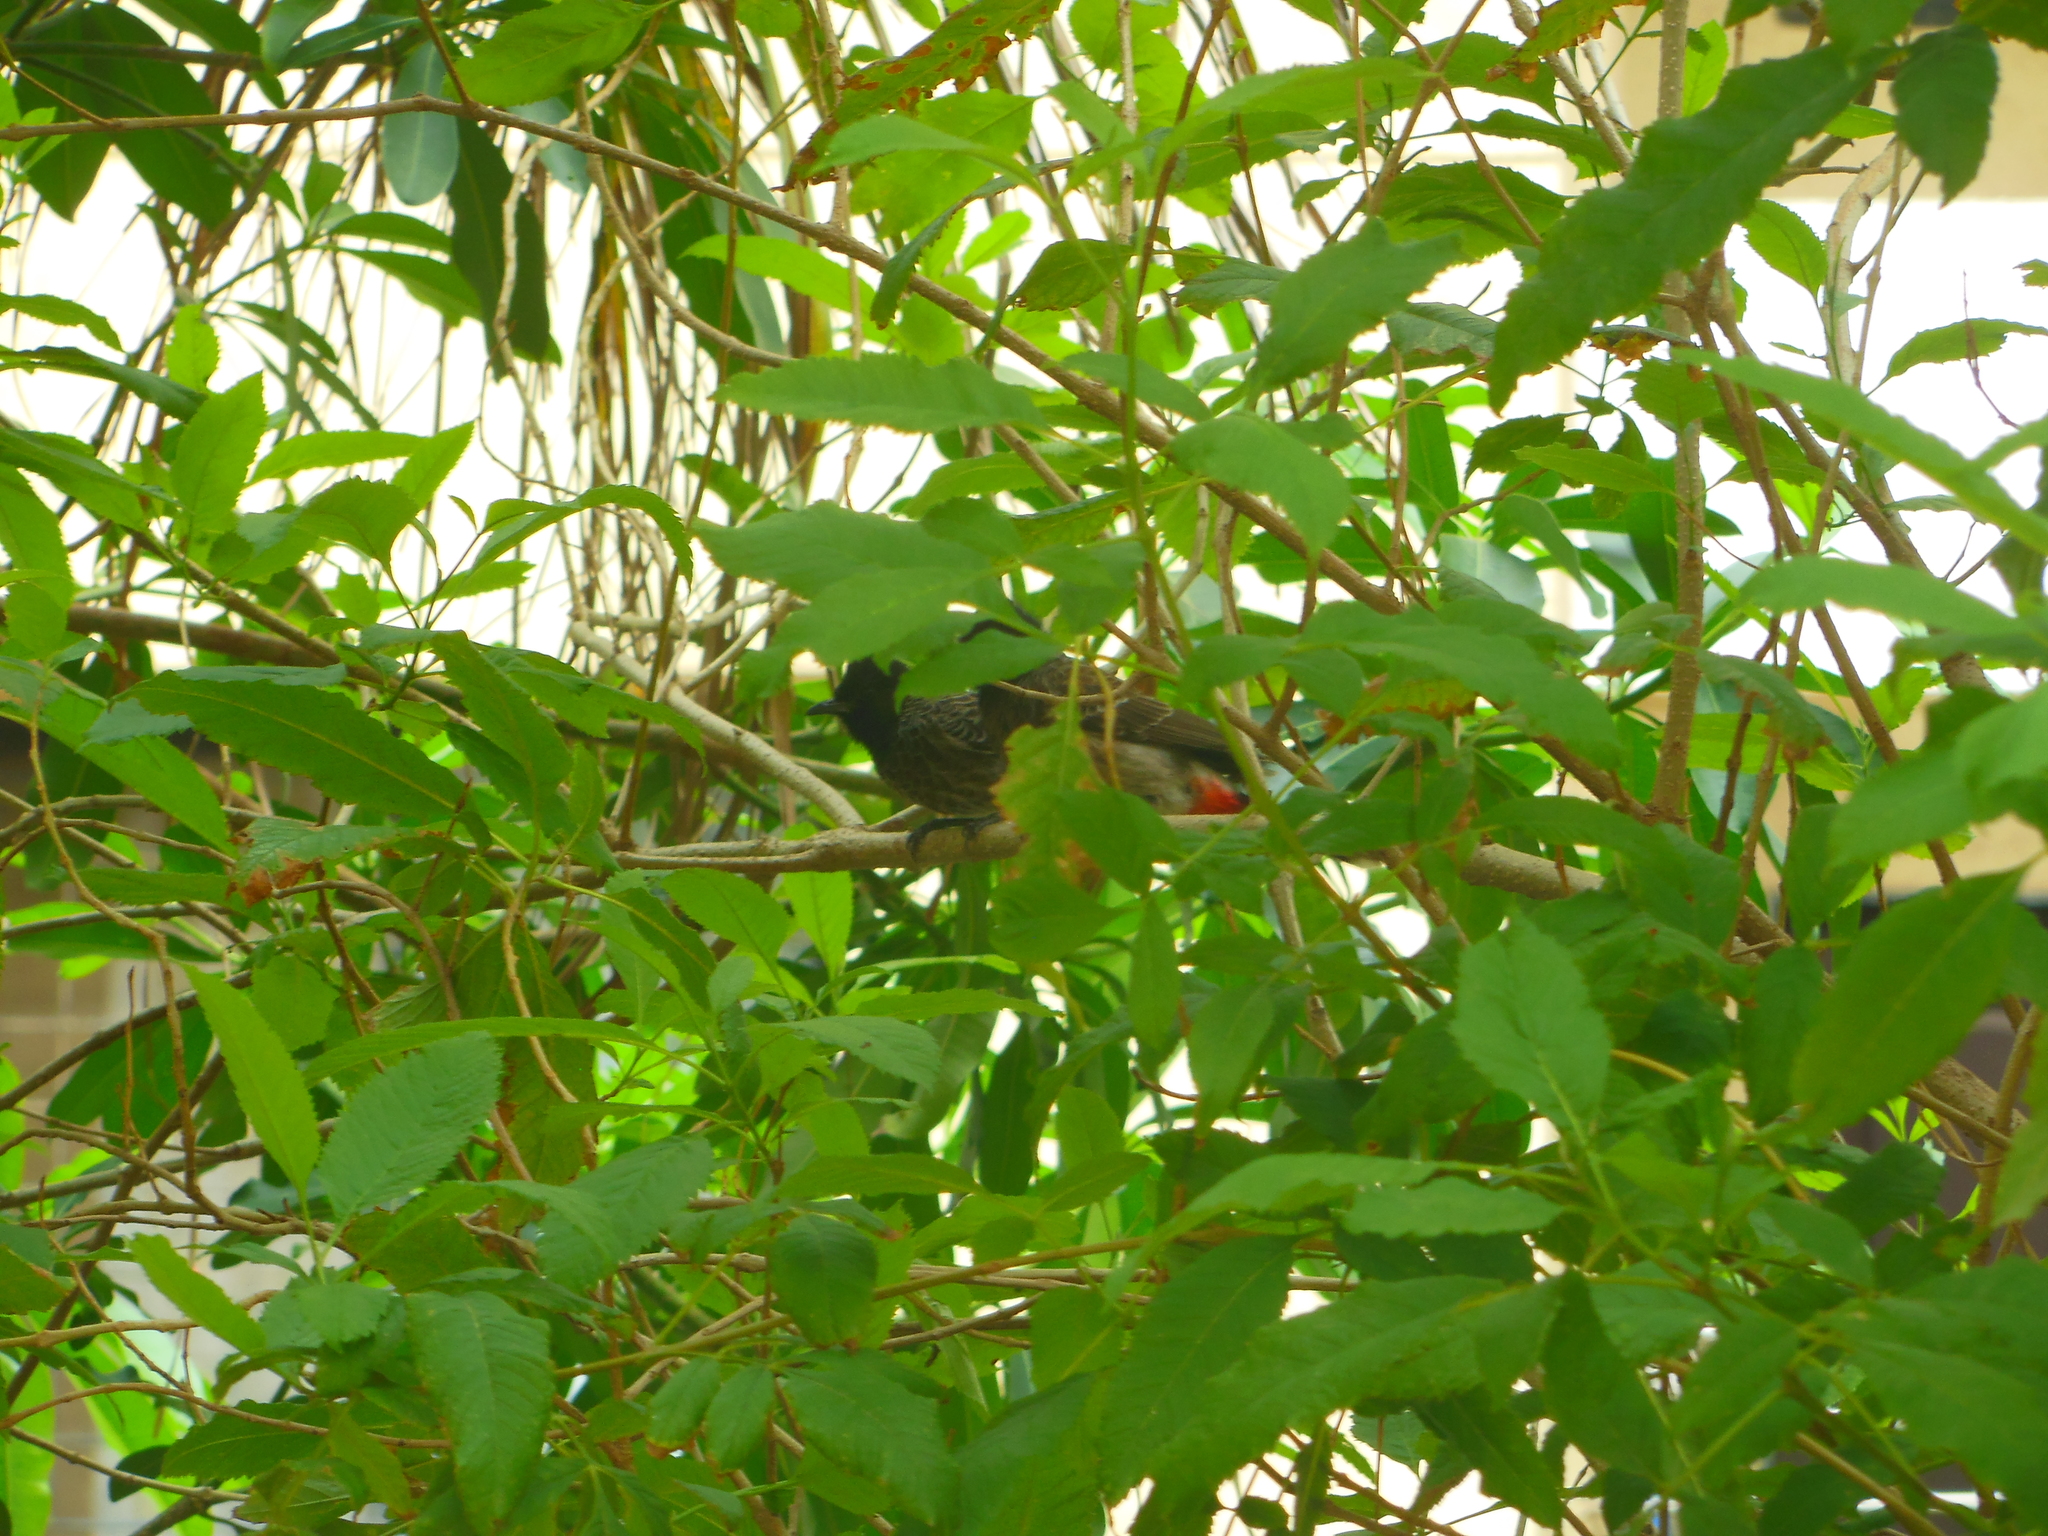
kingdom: Animalia
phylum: Chordata
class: Aves
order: Passeriformes
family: Pycnonotidae
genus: Pycnonotus
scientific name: Pycnonotus cafer
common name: Red-vented bulbul
